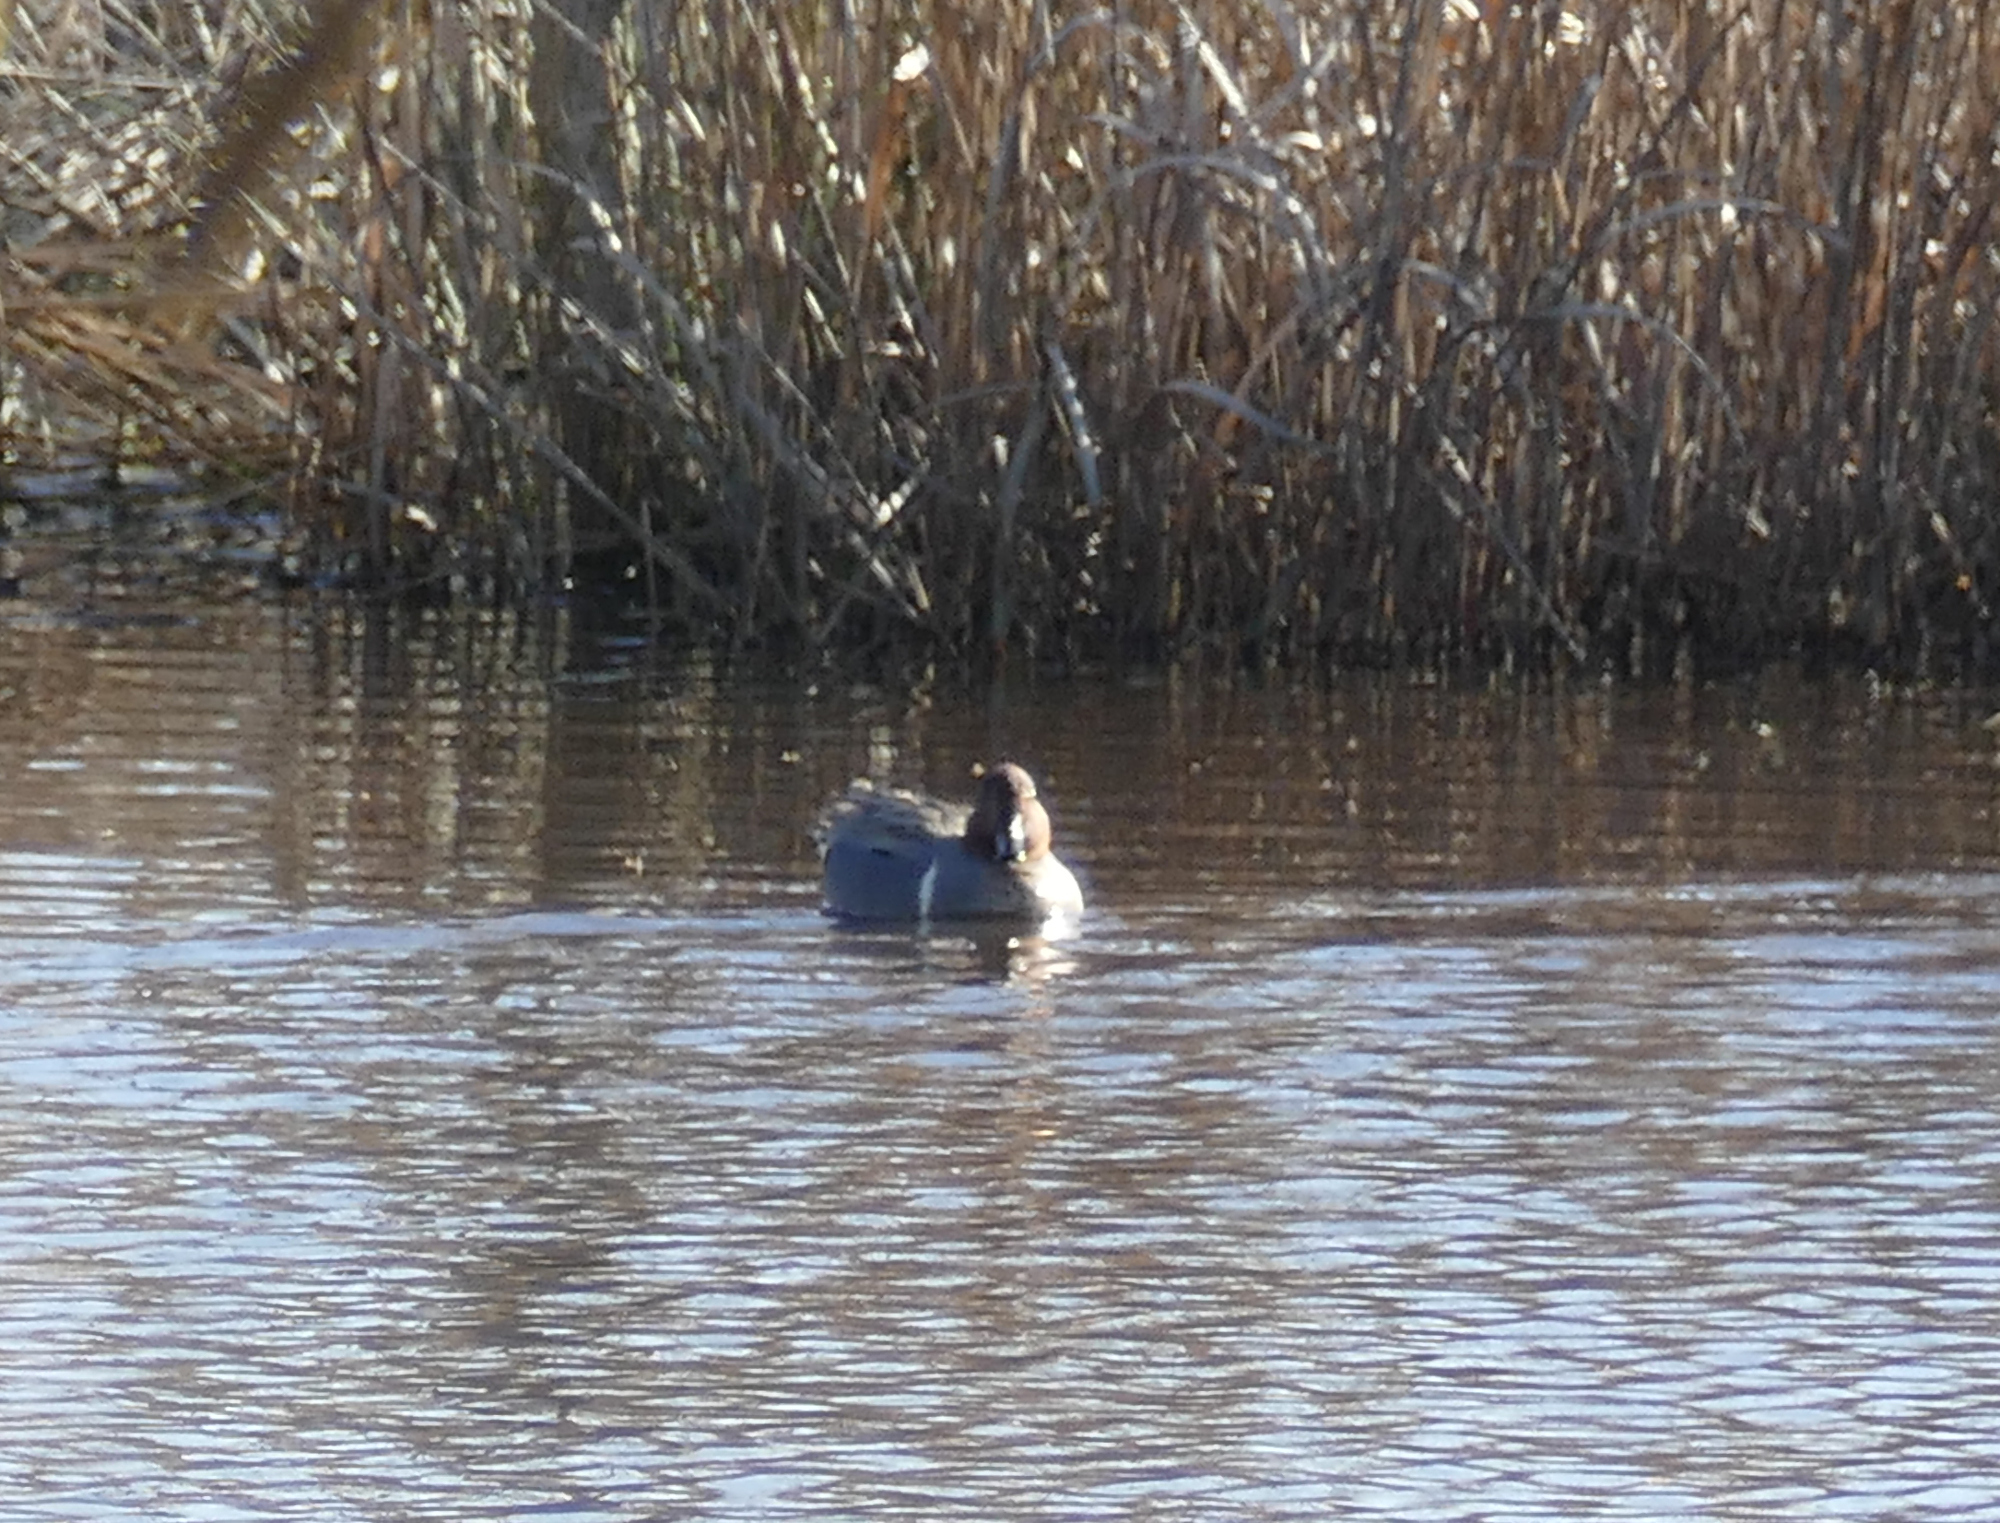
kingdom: Animalia
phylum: Chordata
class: Aves
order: Anseriformes
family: Anatidae
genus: Anas
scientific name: Anas crecca
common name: Eurasian teal
